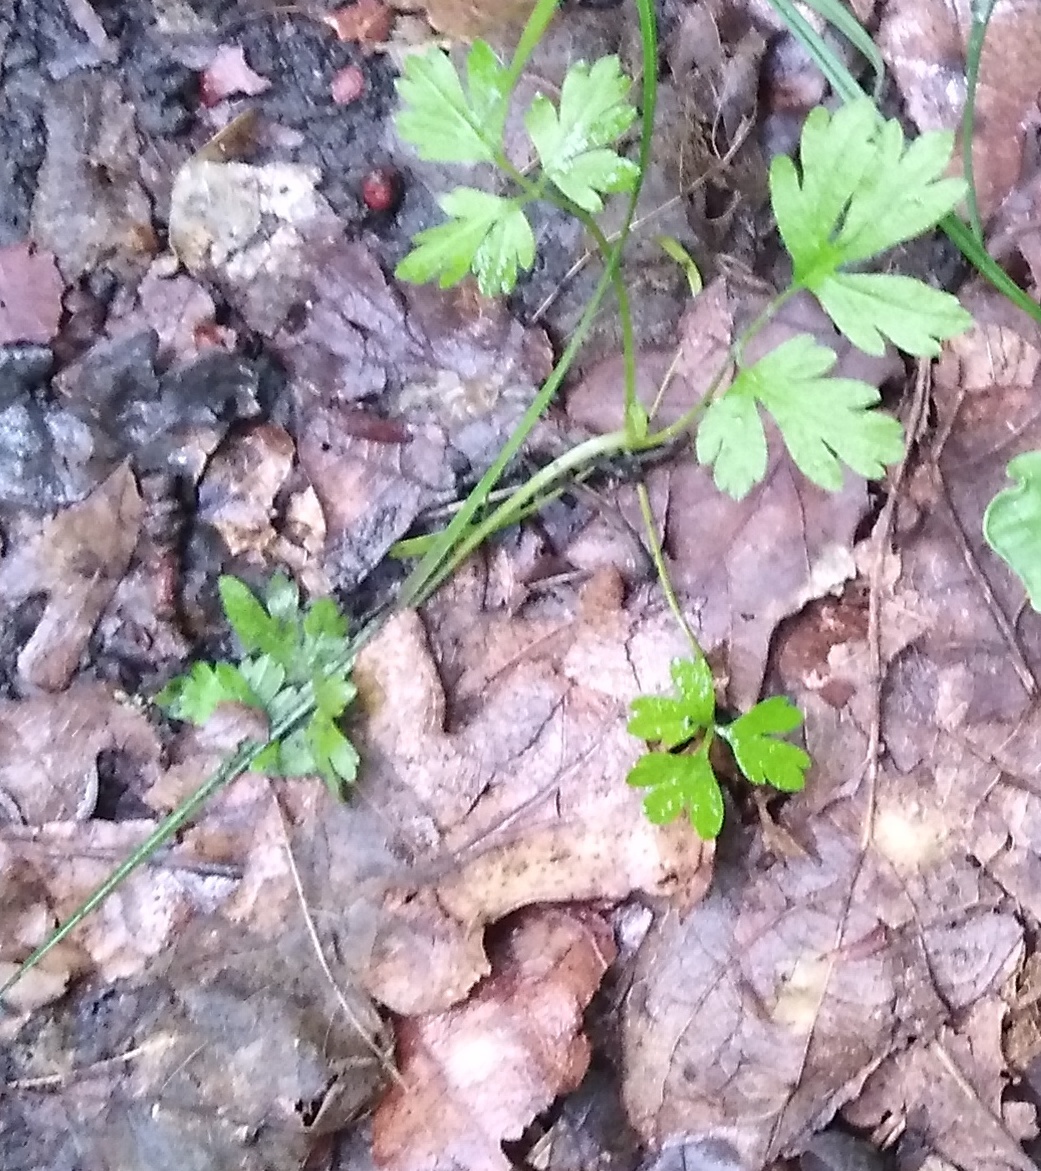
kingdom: Plantae
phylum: Tracheophyta
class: Magnoliopsida
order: Ranunculales
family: Ranunculaceae
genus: Ranunculus
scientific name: Ranunculus repens
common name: Creeping buttercup
